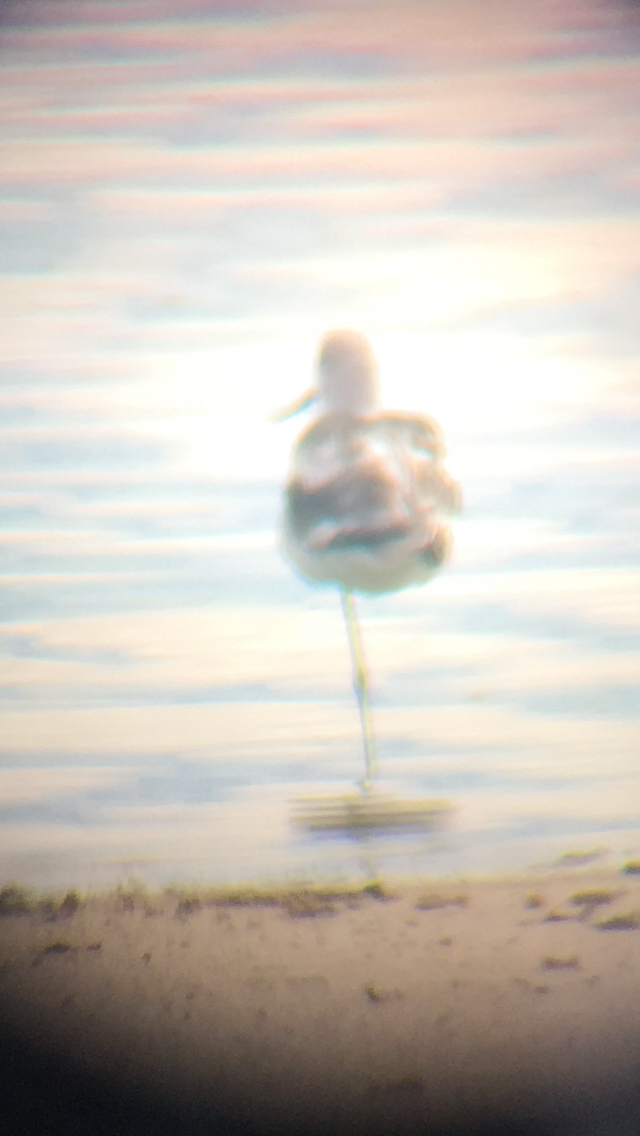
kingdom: Animalia
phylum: Chordata
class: Aves
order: Charadriiformes
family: Recurvirostridae
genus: Recurvirostra
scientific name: Recurvirostra americana
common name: American avocet
